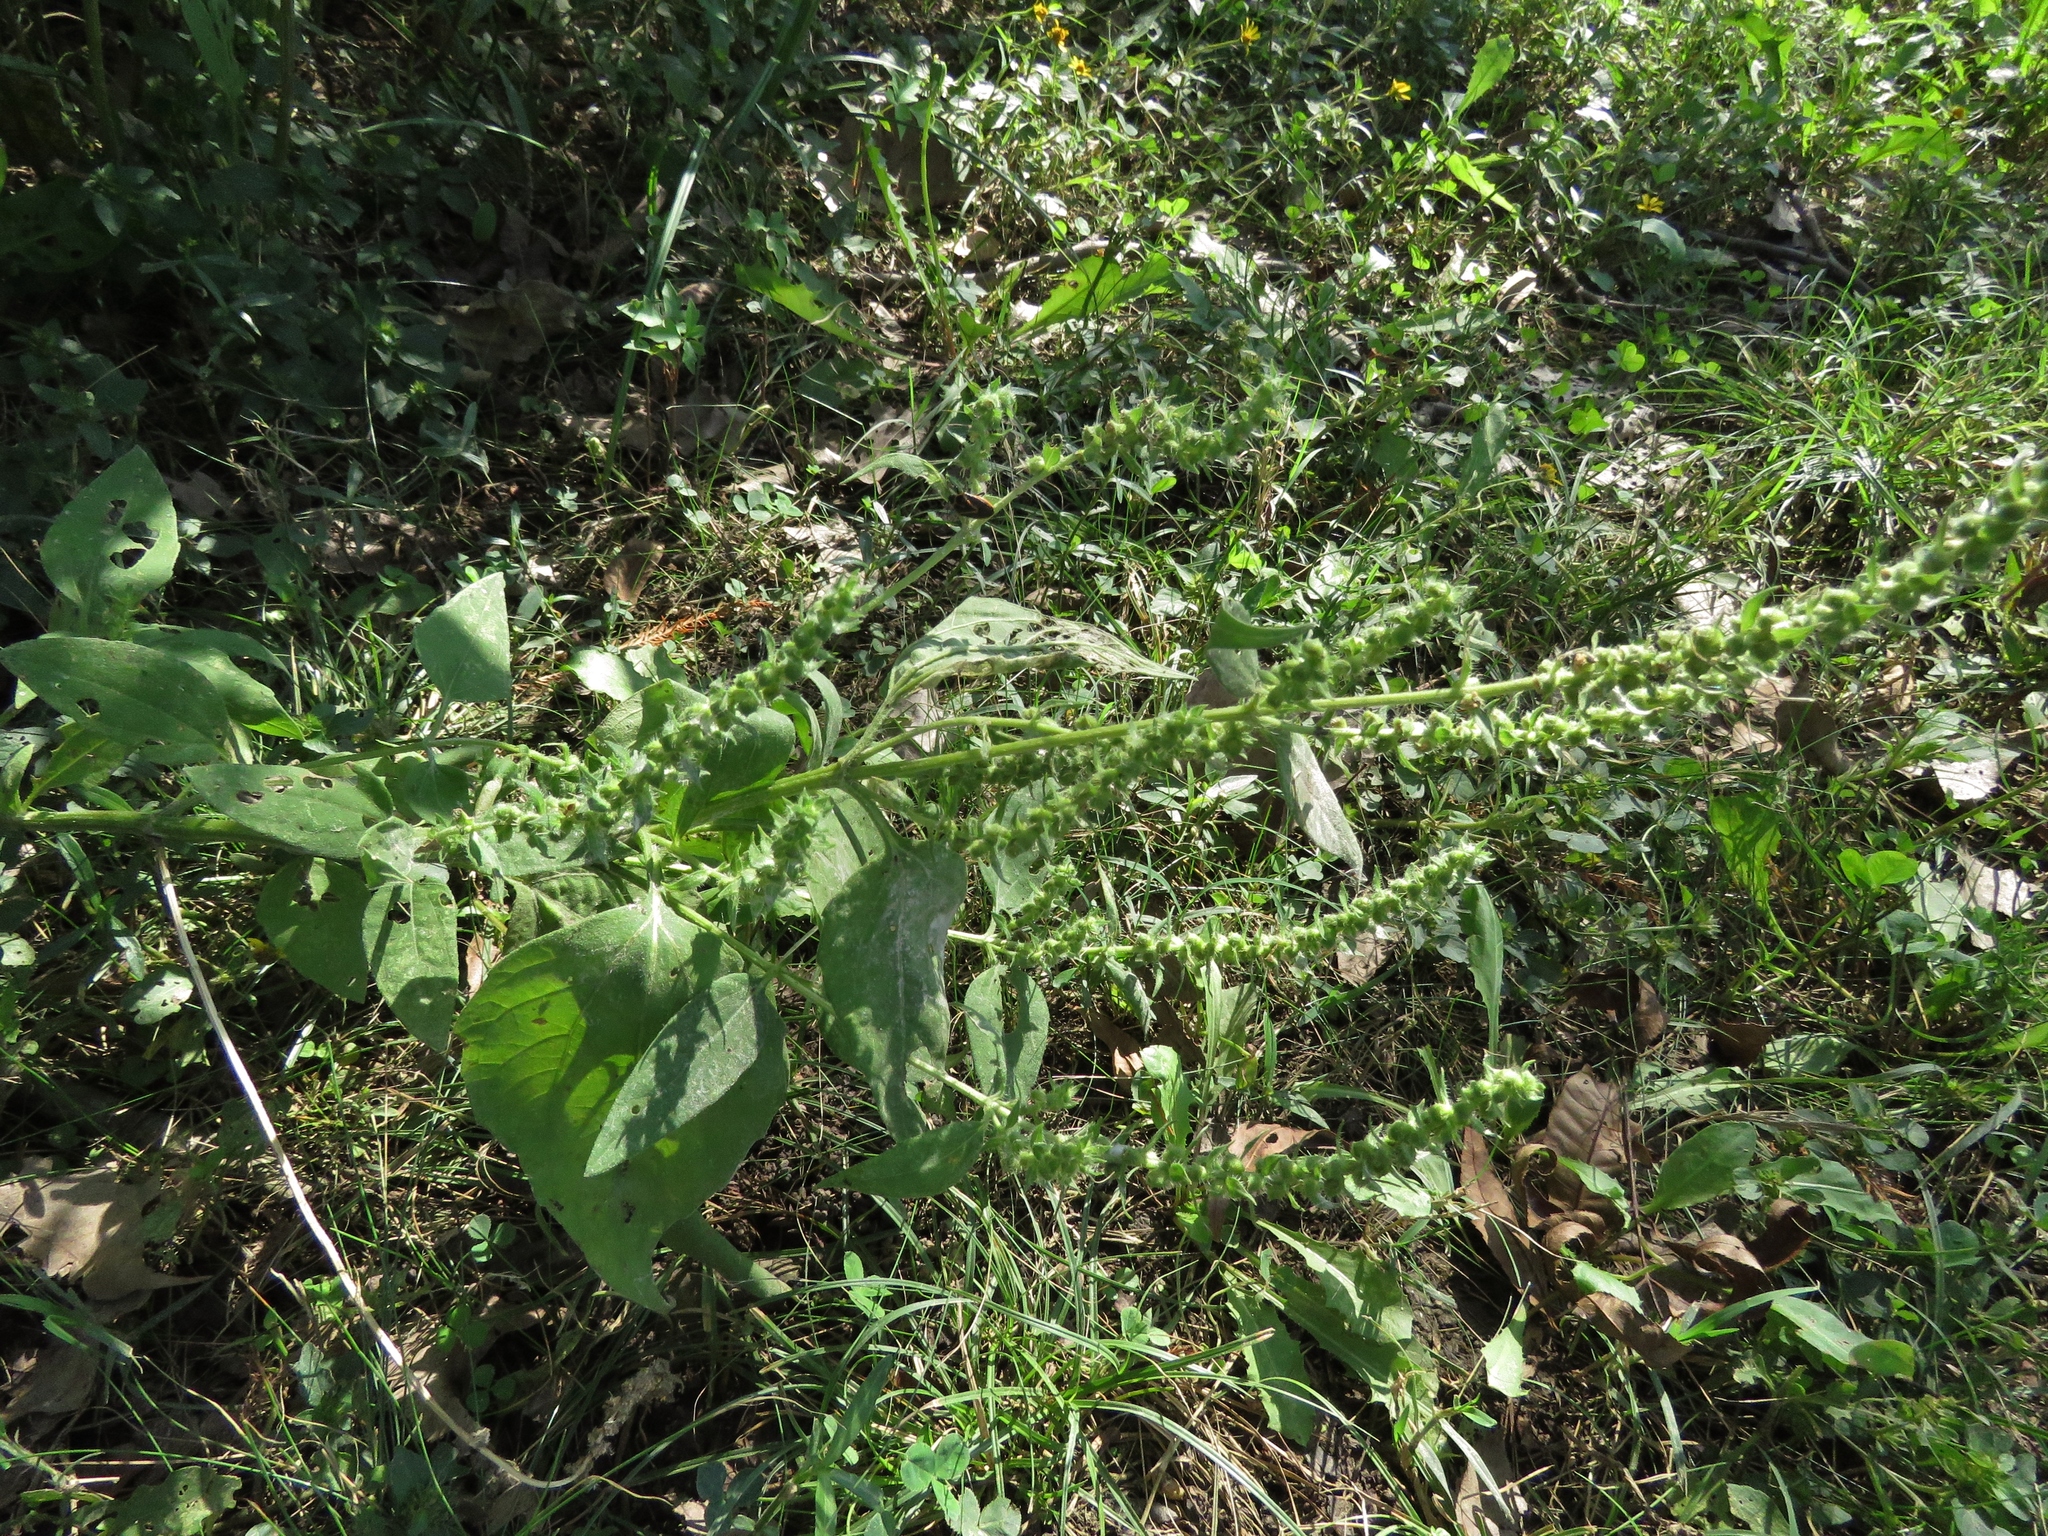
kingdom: Plantae
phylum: Tracheophyta
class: Magnoliopsida
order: Asterales
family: Asteraceae
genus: Ambrosia
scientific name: Ambrosia trifida
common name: Giant ragweed
